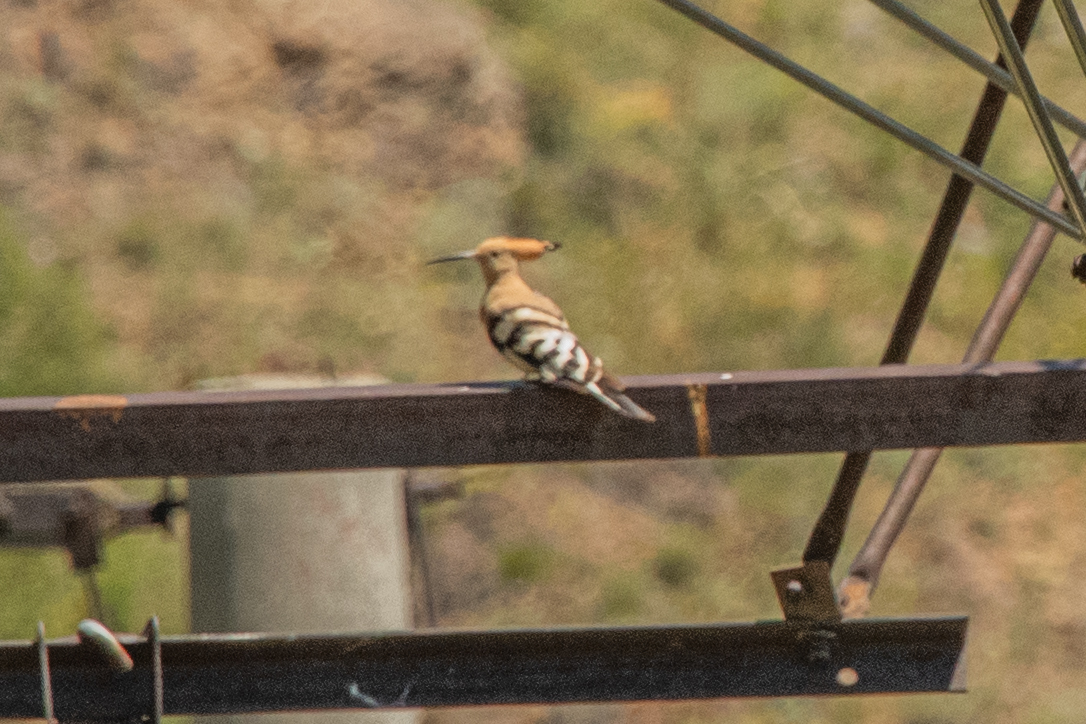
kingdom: Animalia
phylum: Chordata
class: Aves
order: Bucerotiformes
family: Upupidae
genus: Upupa
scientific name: Upupa epops
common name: Eurasian hoopoe
